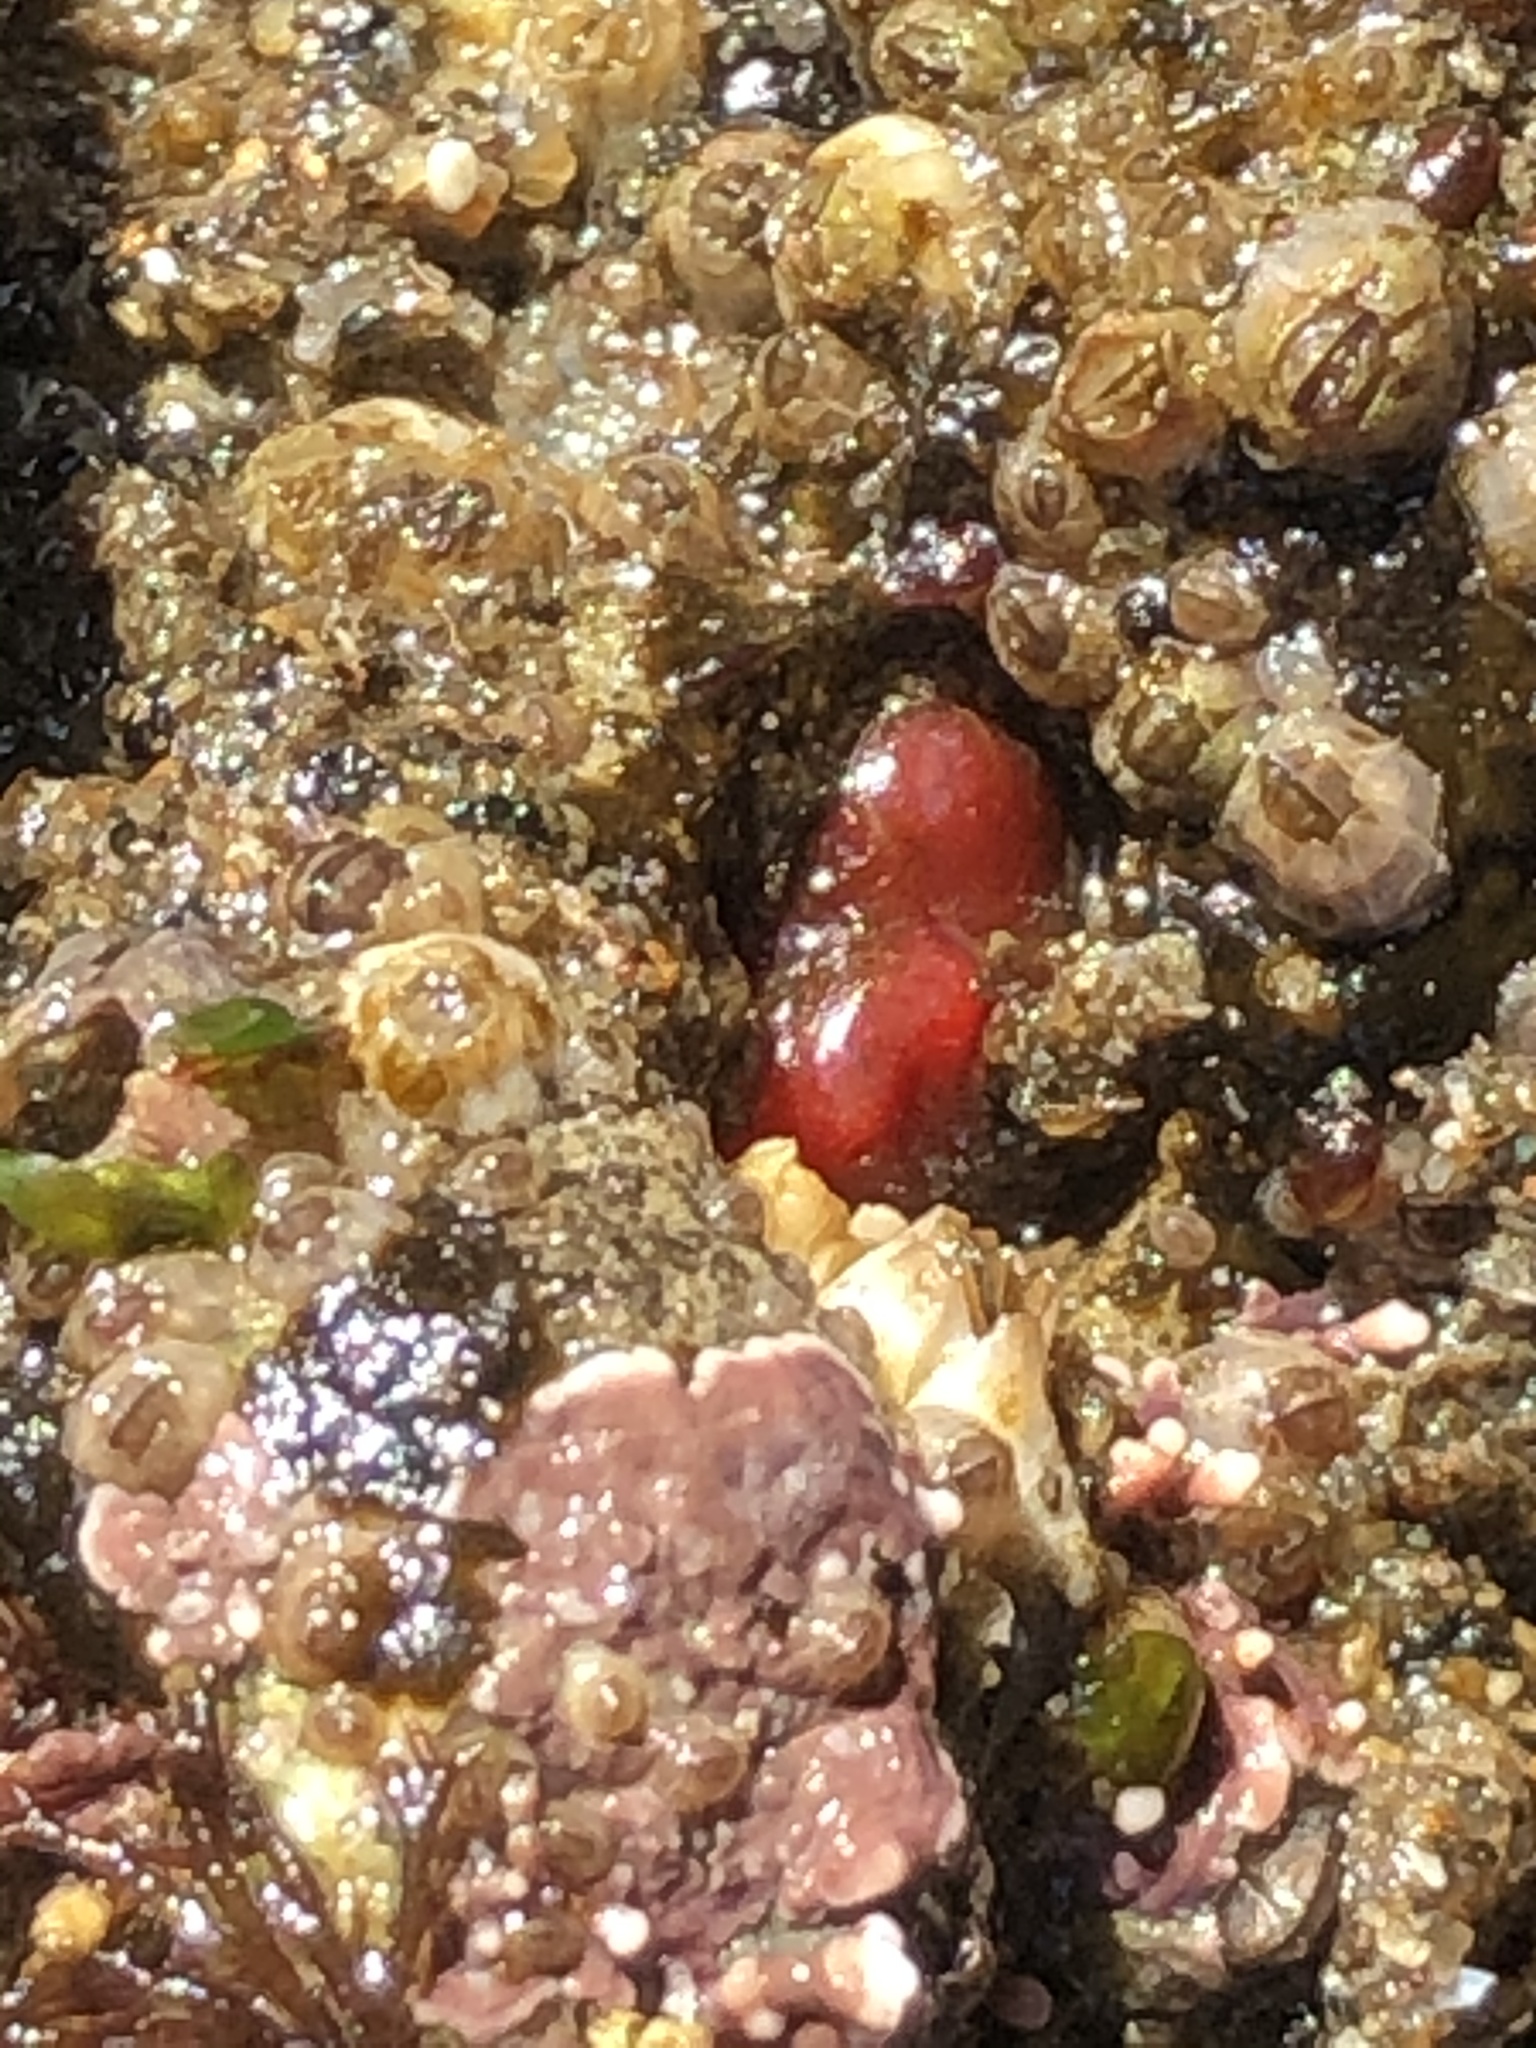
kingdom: Animalia
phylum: Mollusca
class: Bivalvia
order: Adapedonta
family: Hiatellidae
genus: Hiatella
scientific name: Hiatella arctica
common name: Arctic hiatella
